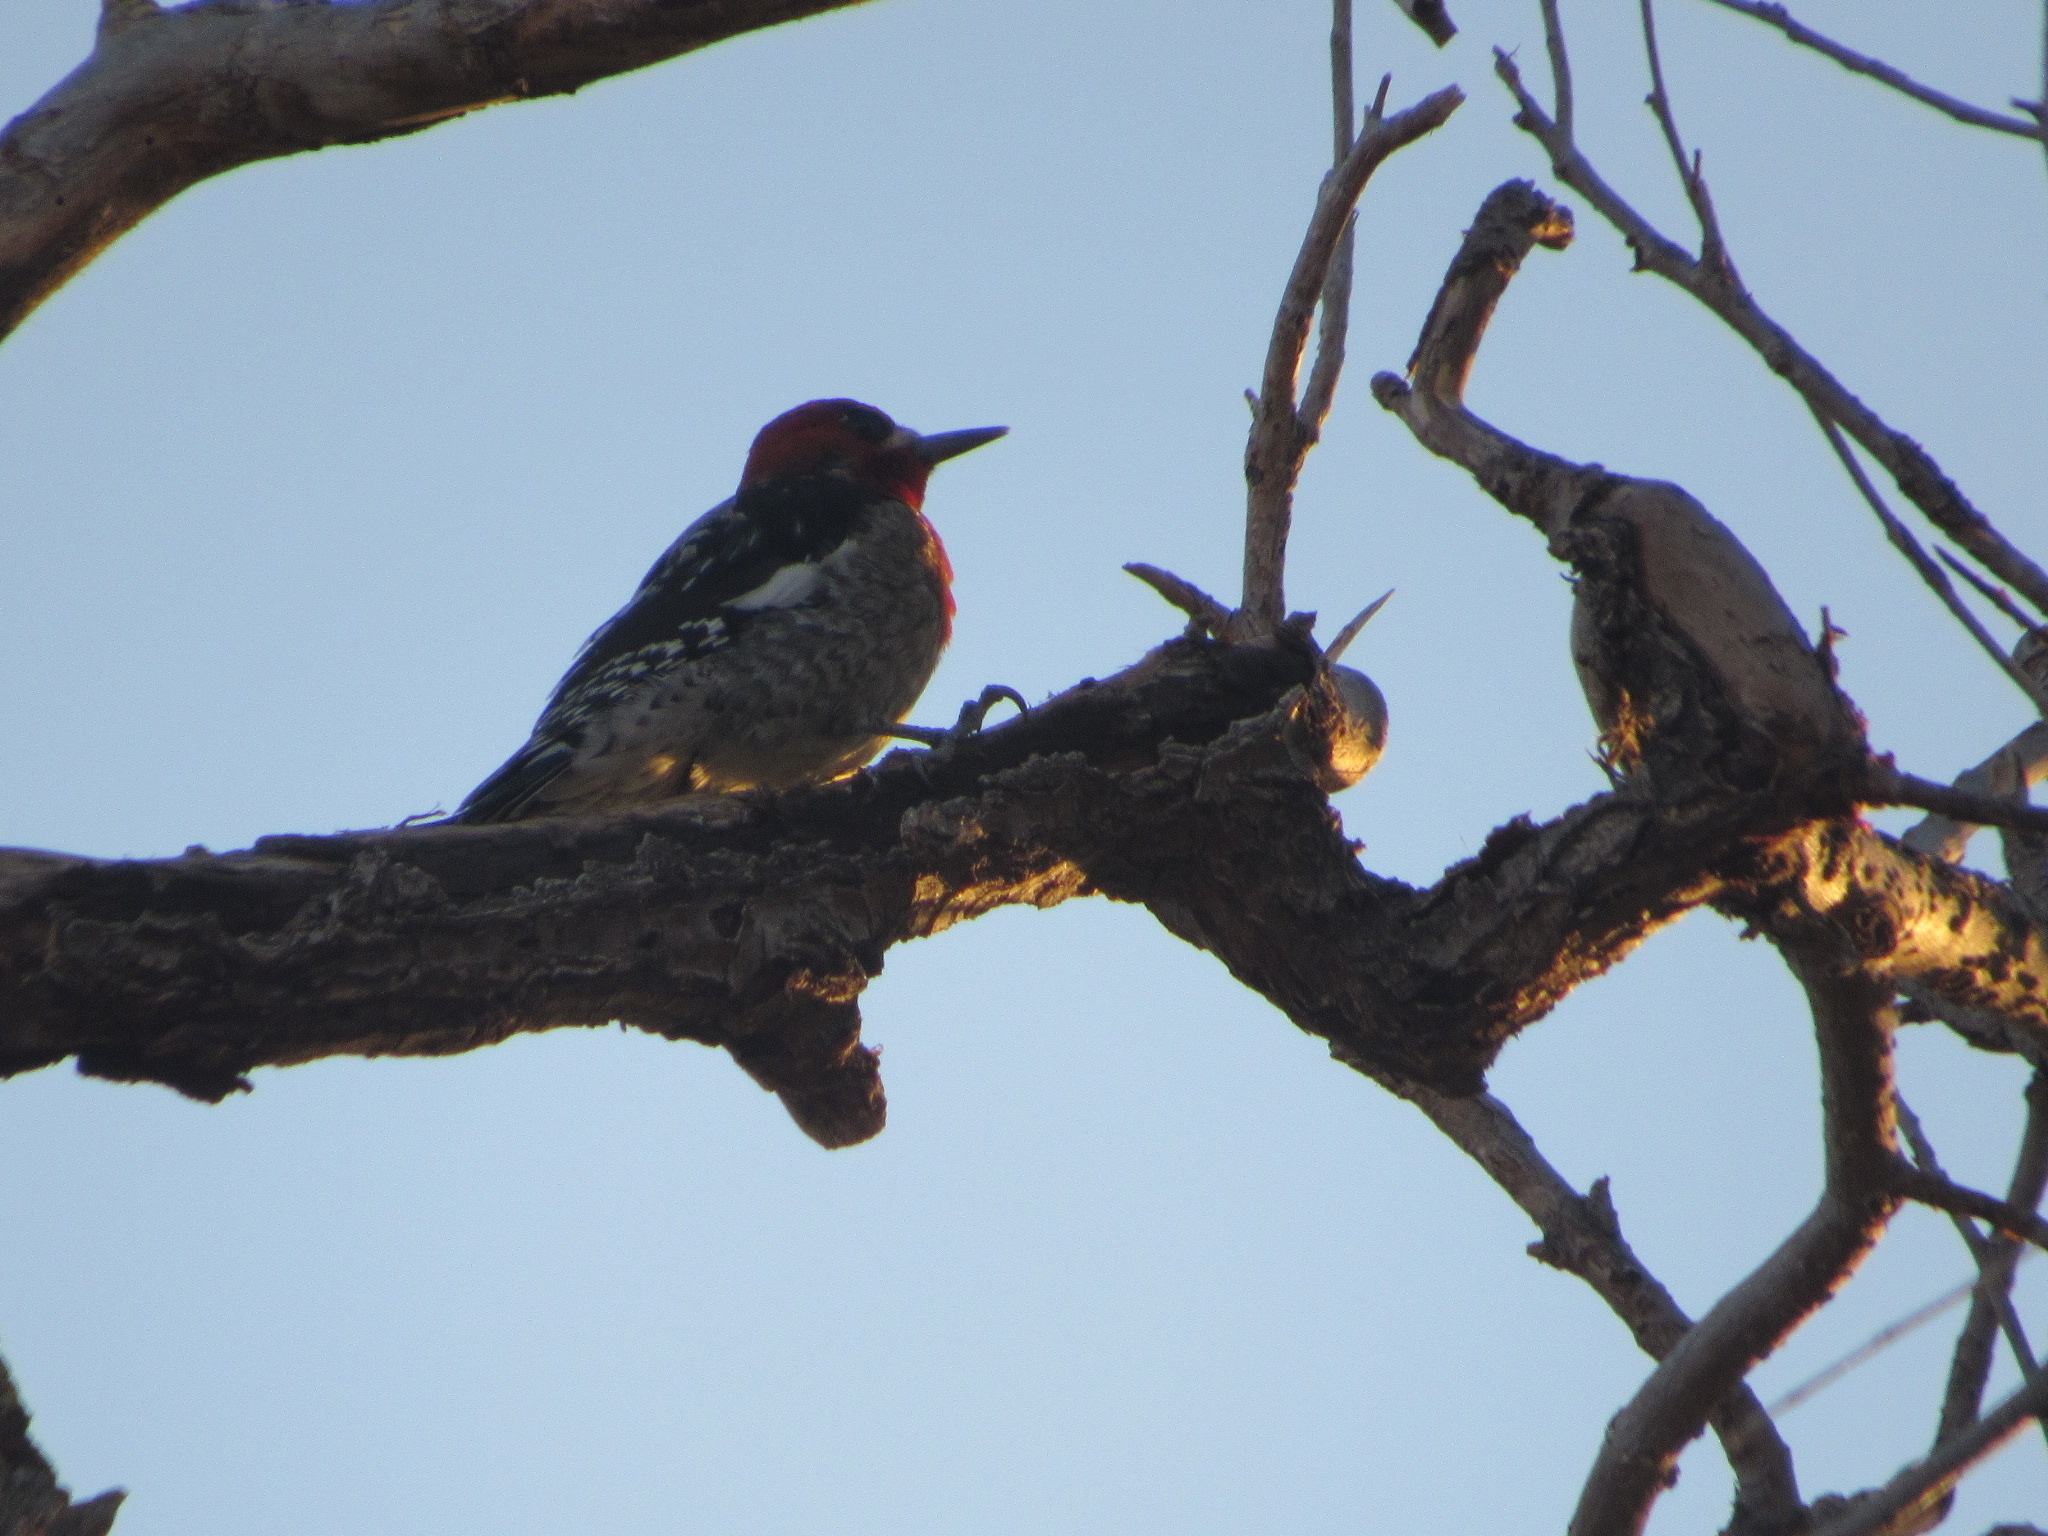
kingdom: Animalia
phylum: Chordata
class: Aves
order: Piciformes
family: Picidae
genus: Sphyrapicus
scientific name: Sphyrapicus ruber
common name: Red-breasted sapsucker
